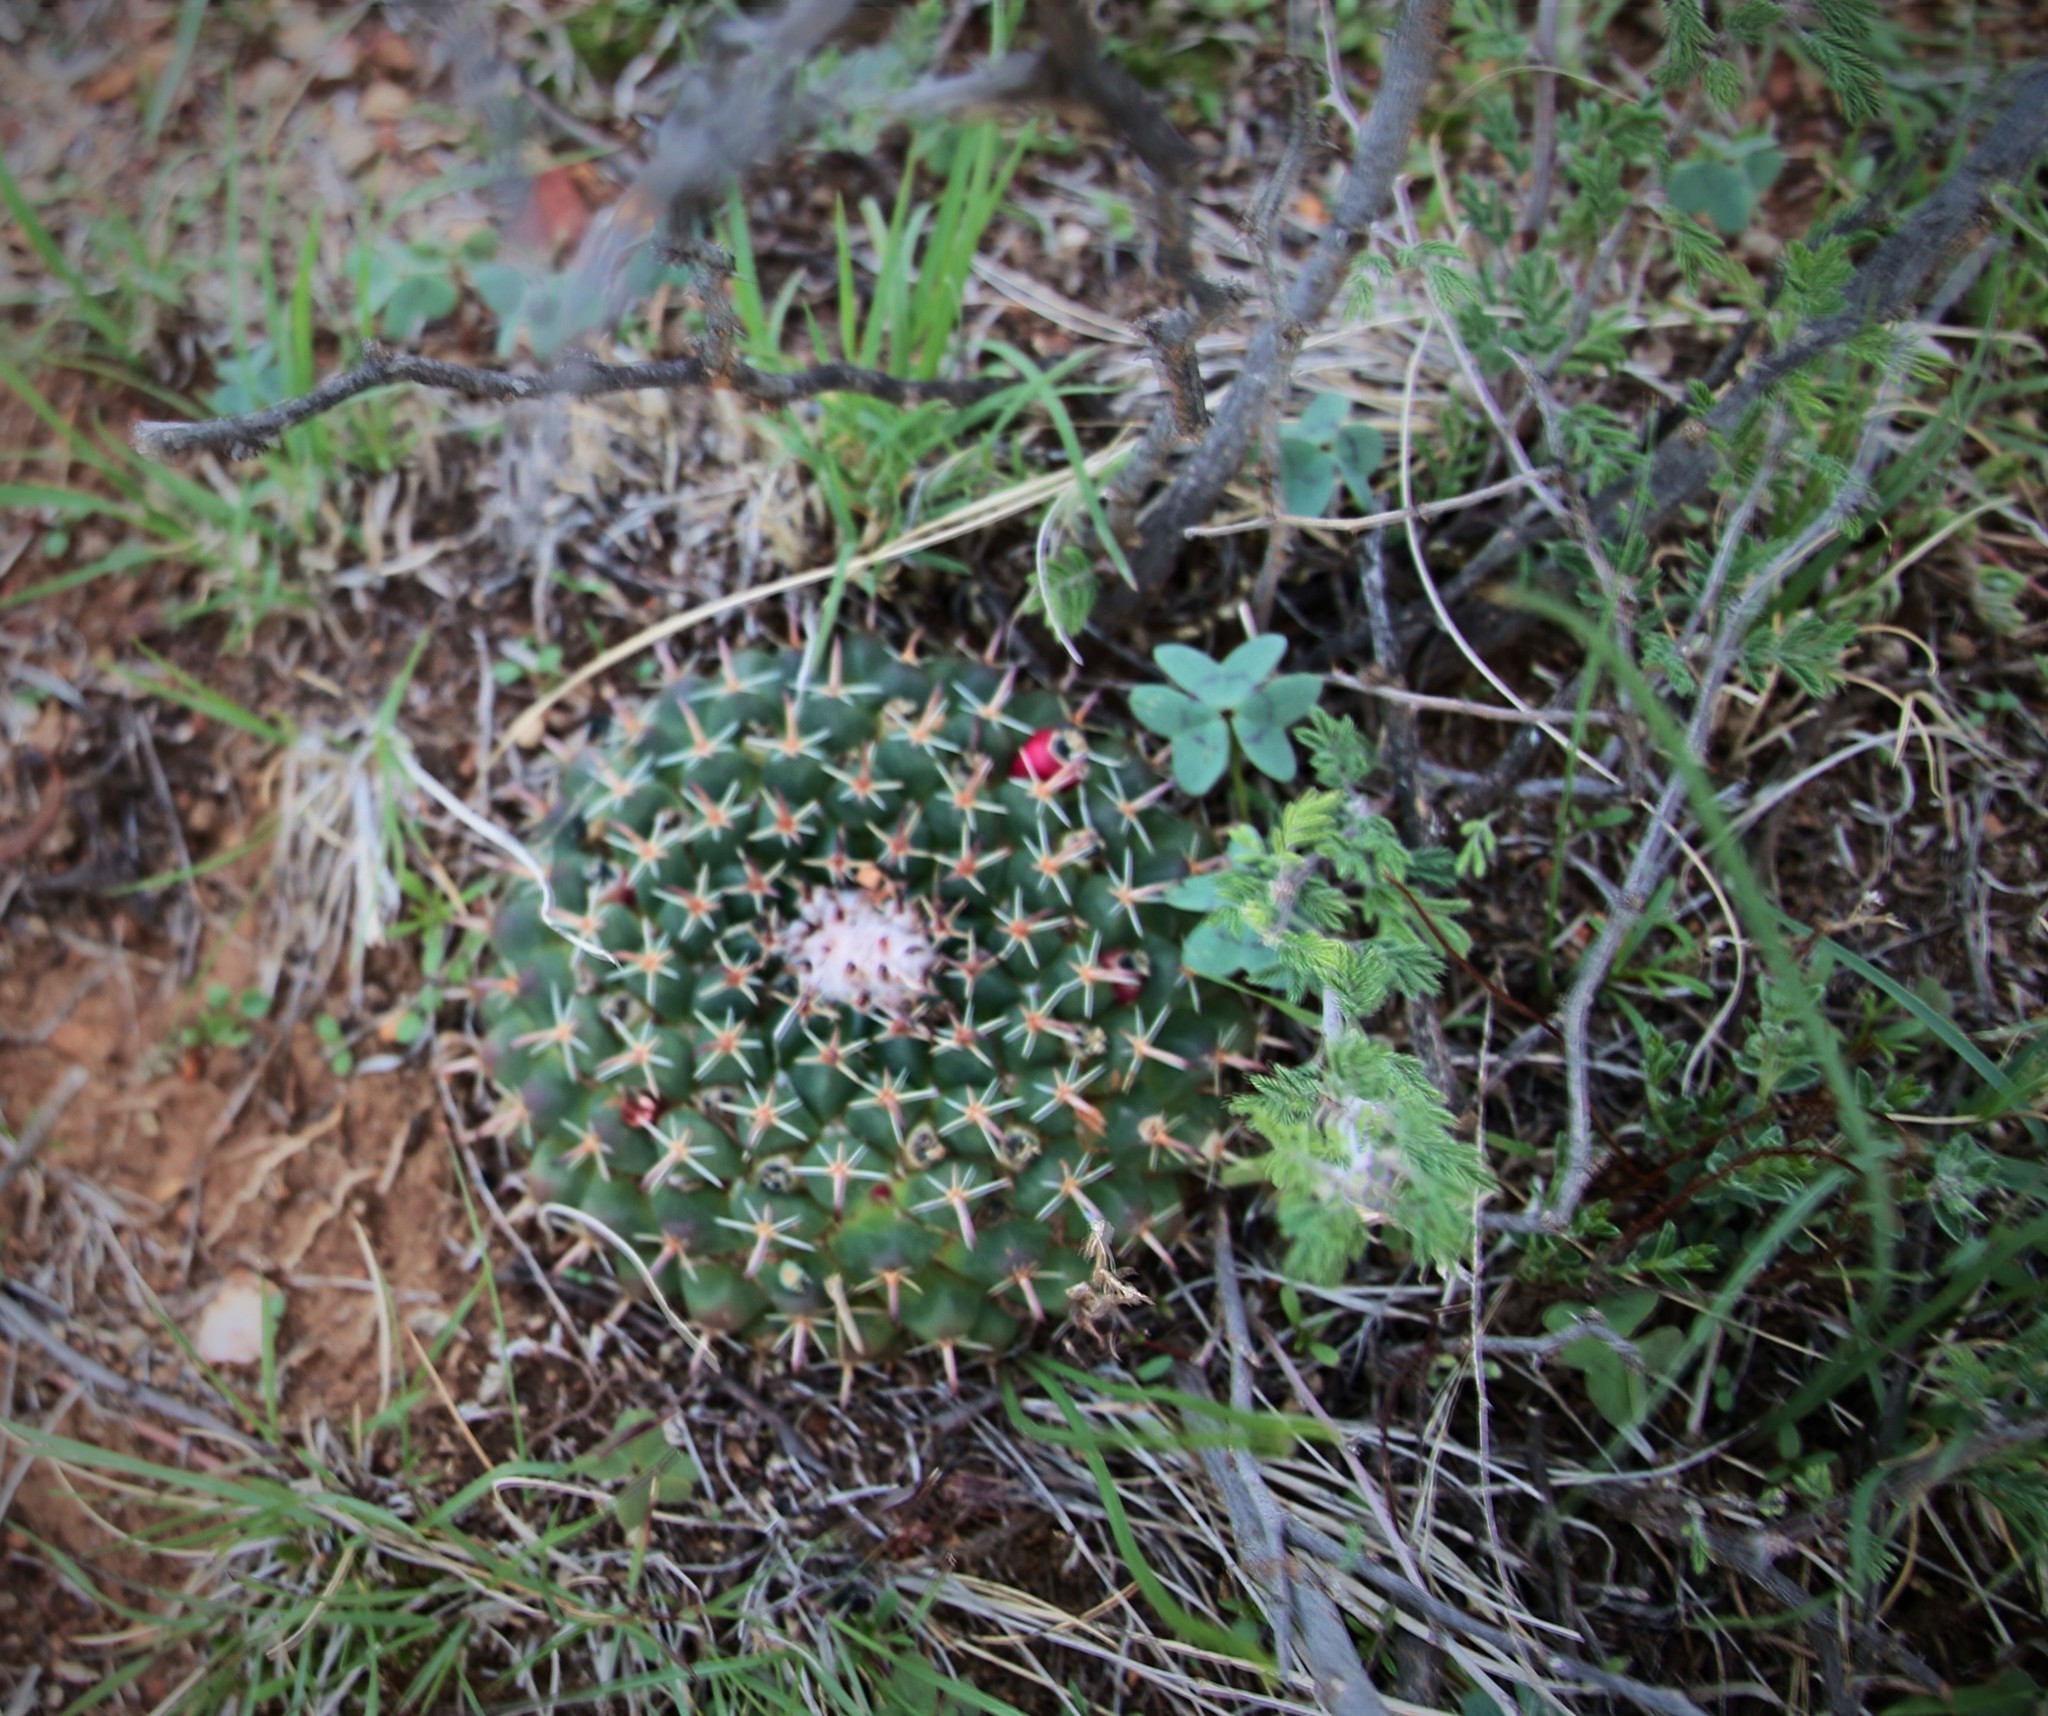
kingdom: Plantae
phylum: Tracheophyta
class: Magnoliopsida
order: Caryophyllales
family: Cactaceae
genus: Mammillaria
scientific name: Mammillaria uncinata
